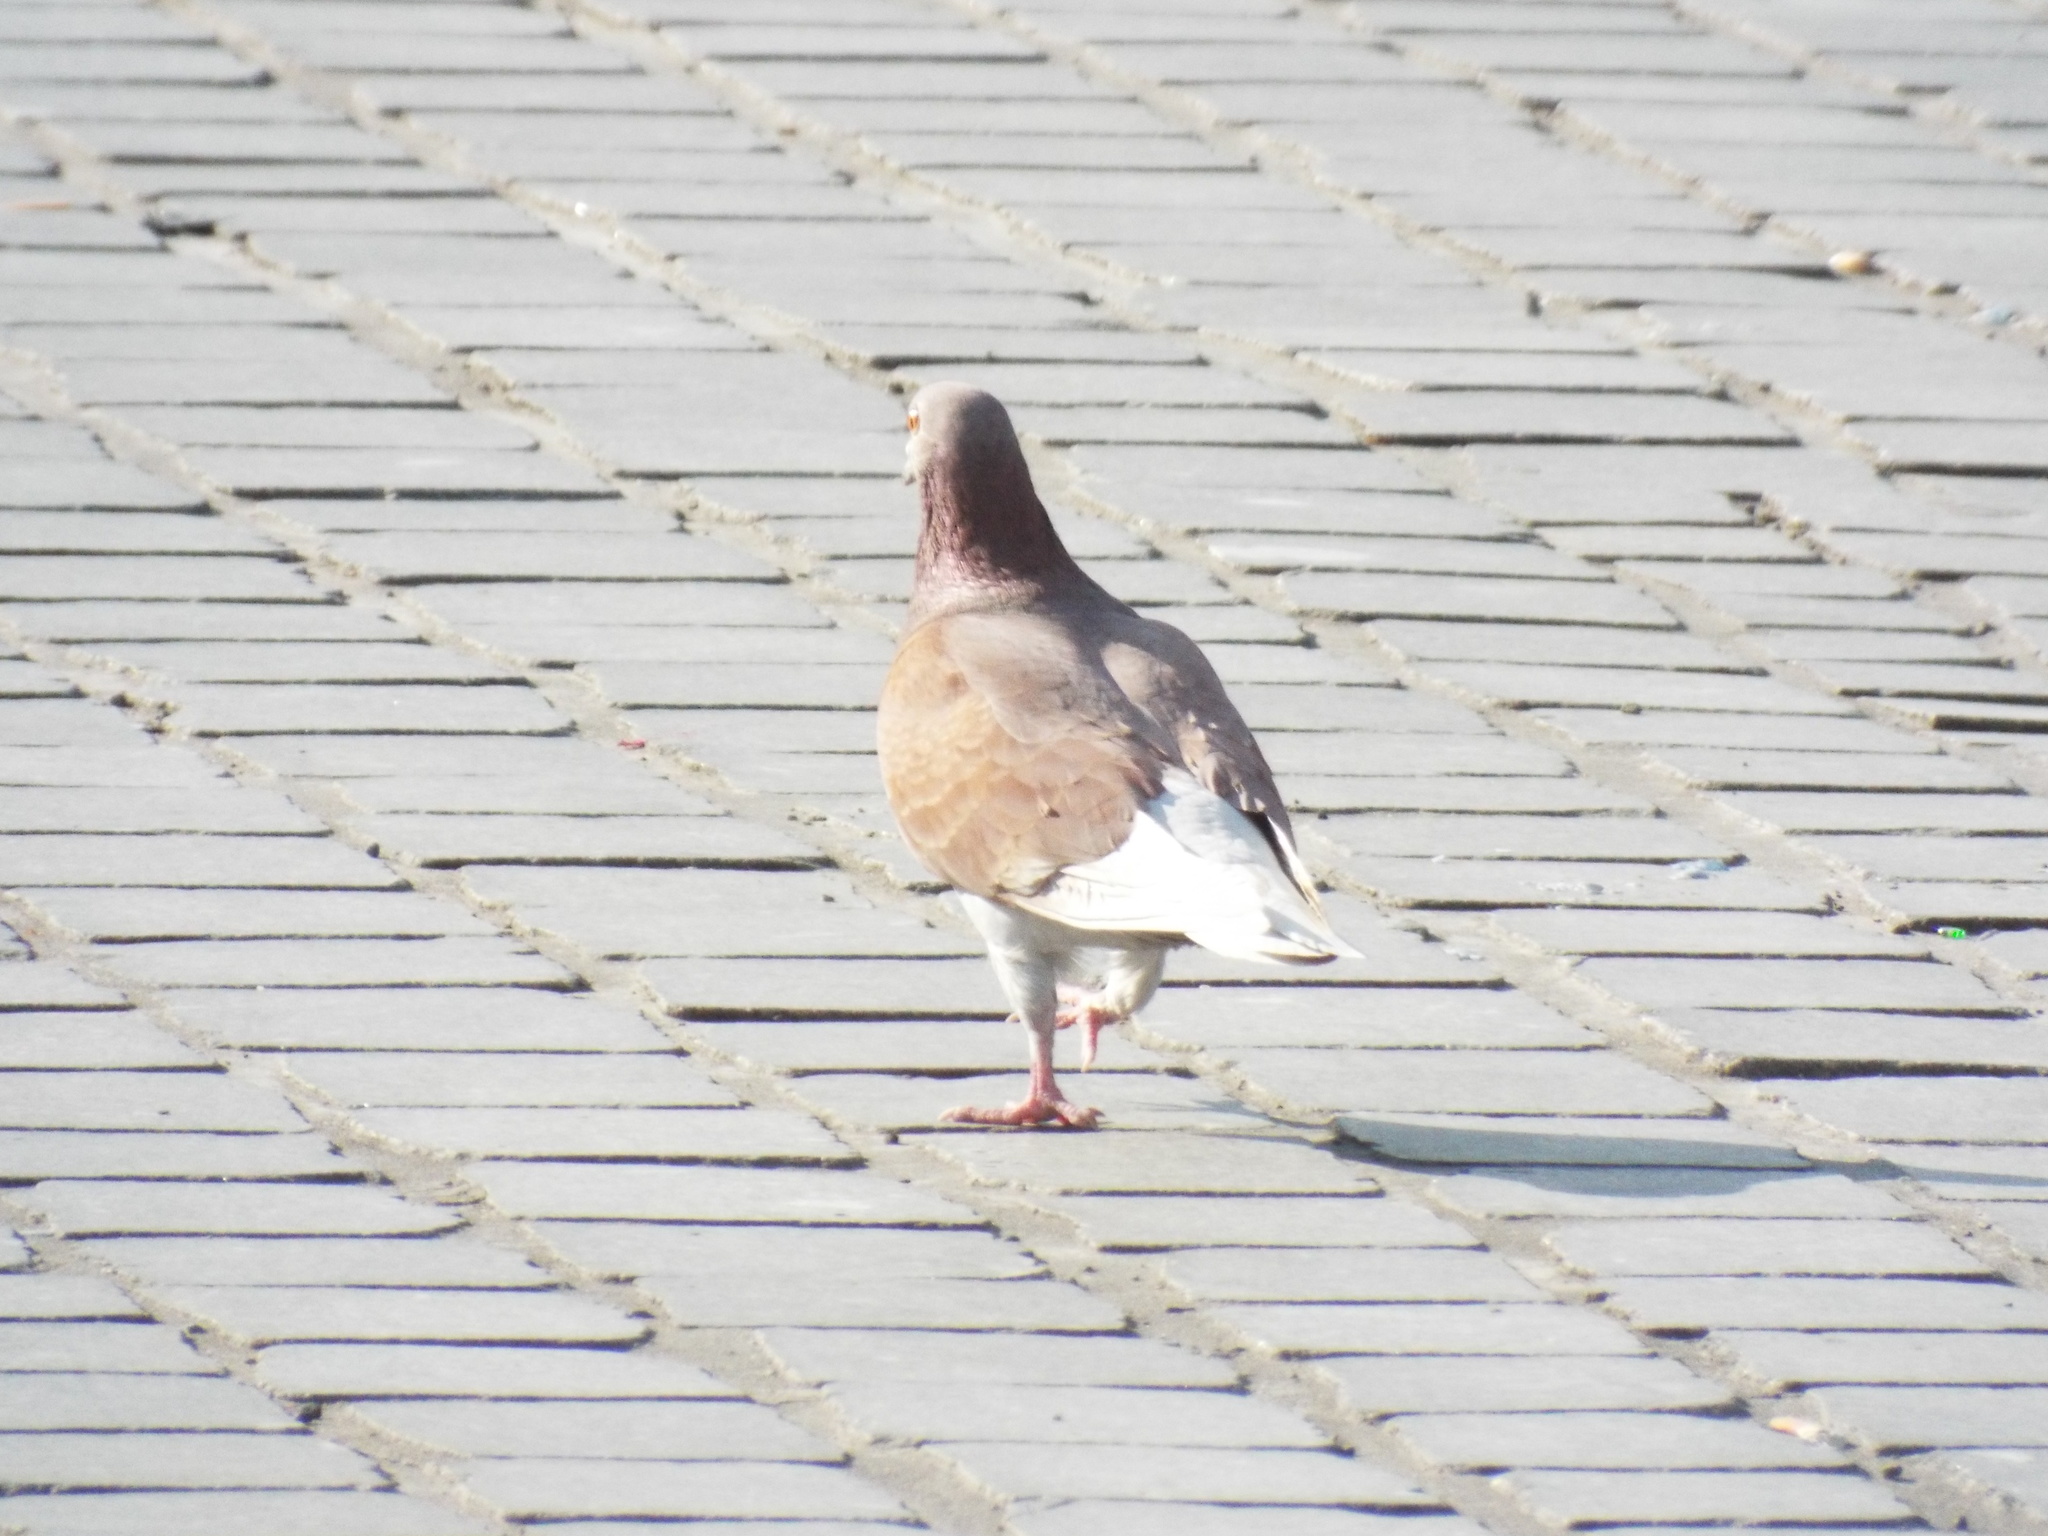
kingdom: Animalia
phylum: Chordata
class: Aves
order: Columbiformes
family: Columbidae
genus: Columba
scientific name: Columba livia
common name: Rock pigeon
